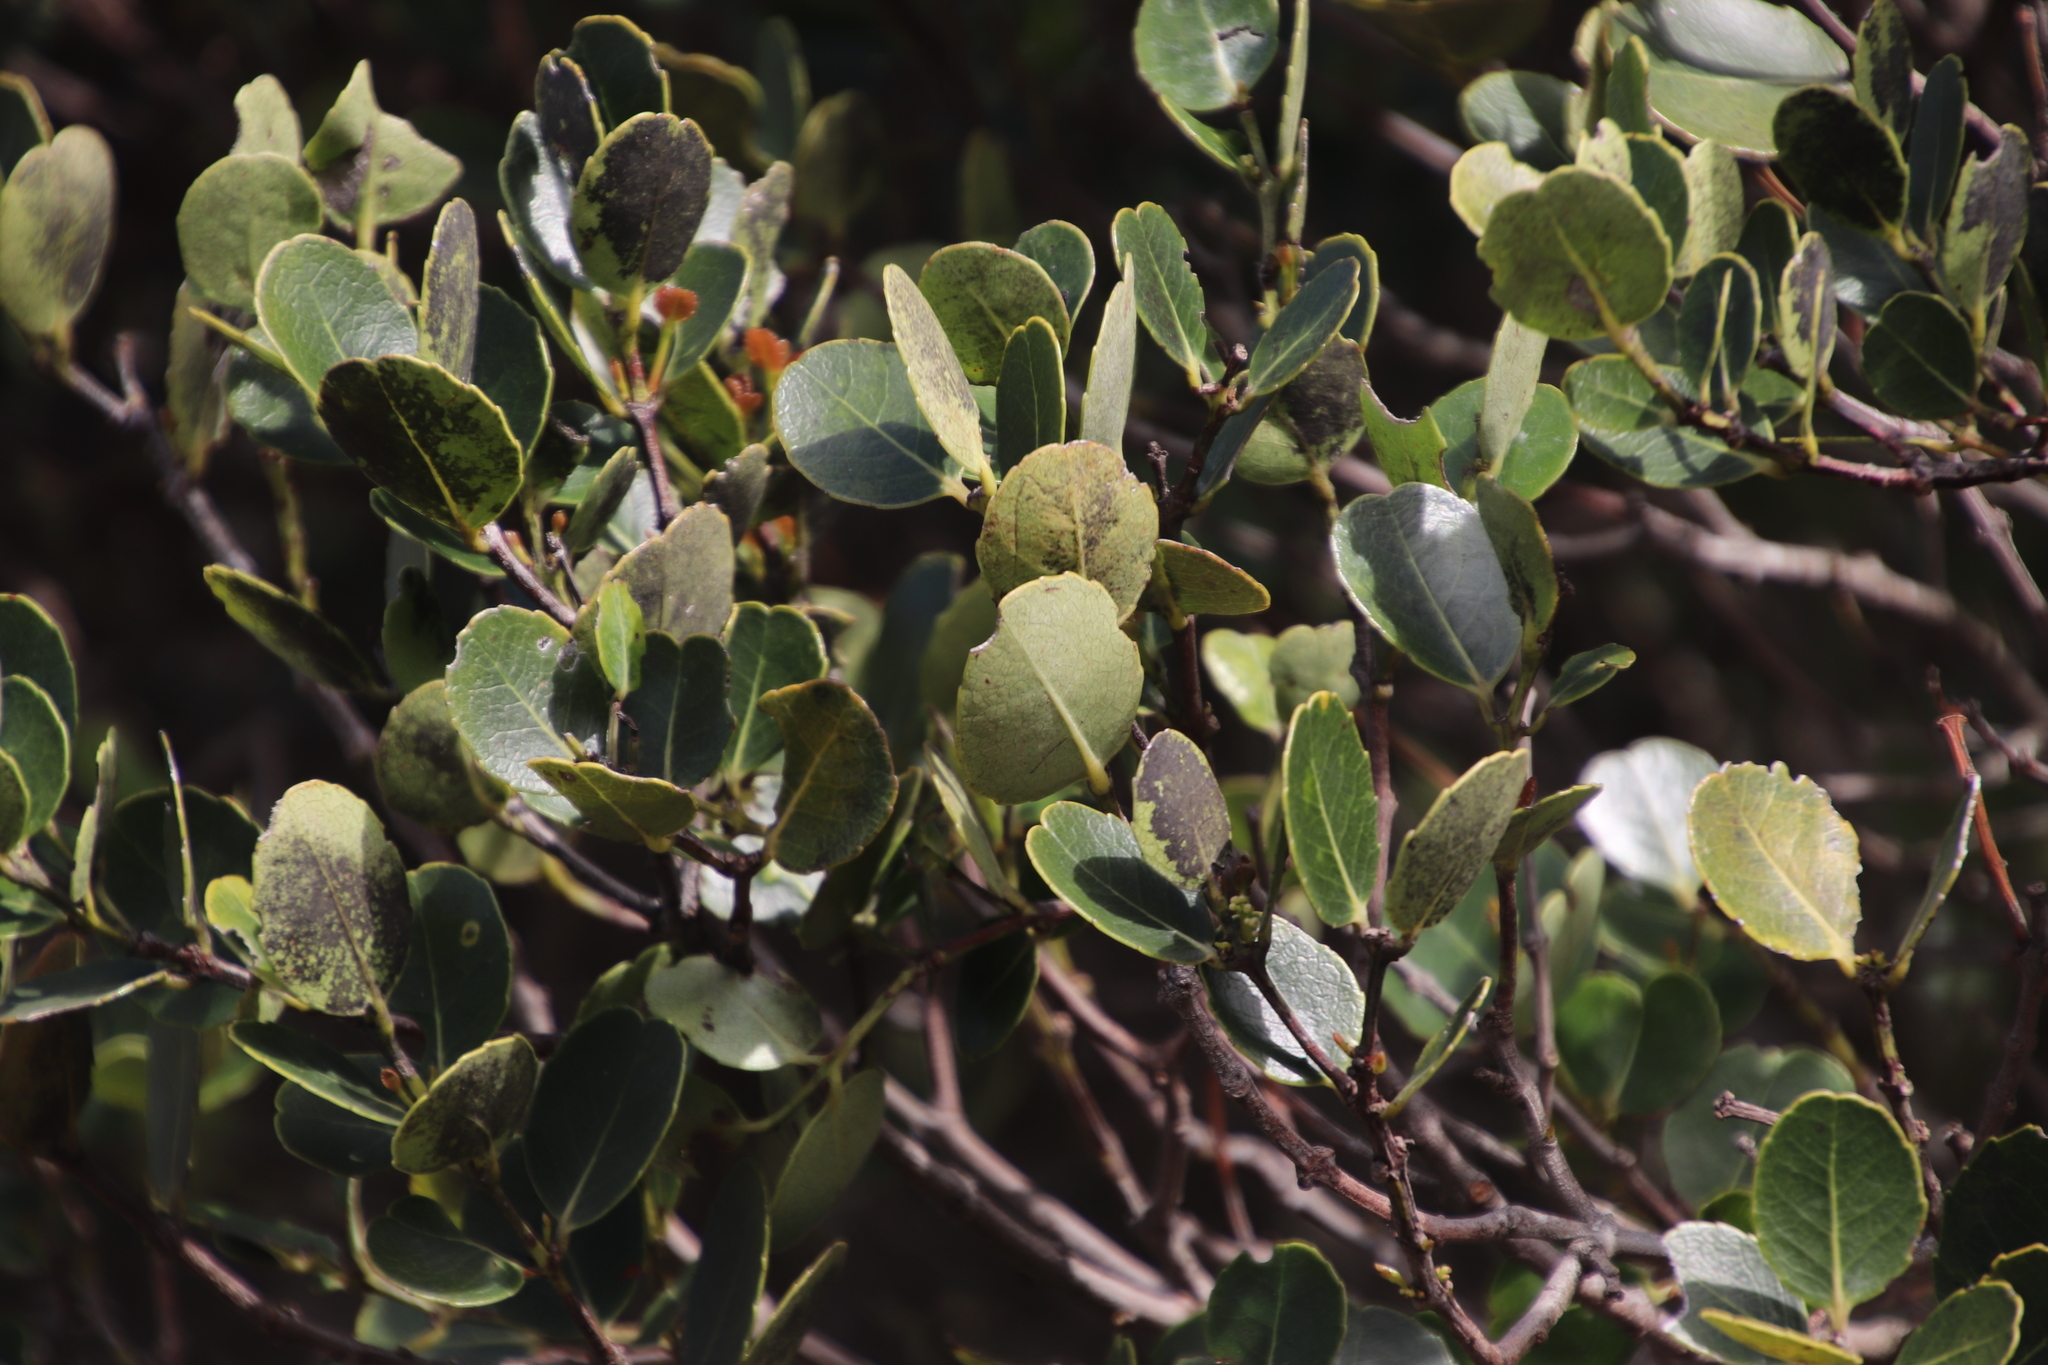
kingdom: Plantae
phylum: Tracheophyta
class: Magnoliopsida
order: Celastrales
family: Celastraceae
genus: Cassine
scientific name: Cassine peragua
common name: Cape saffron
